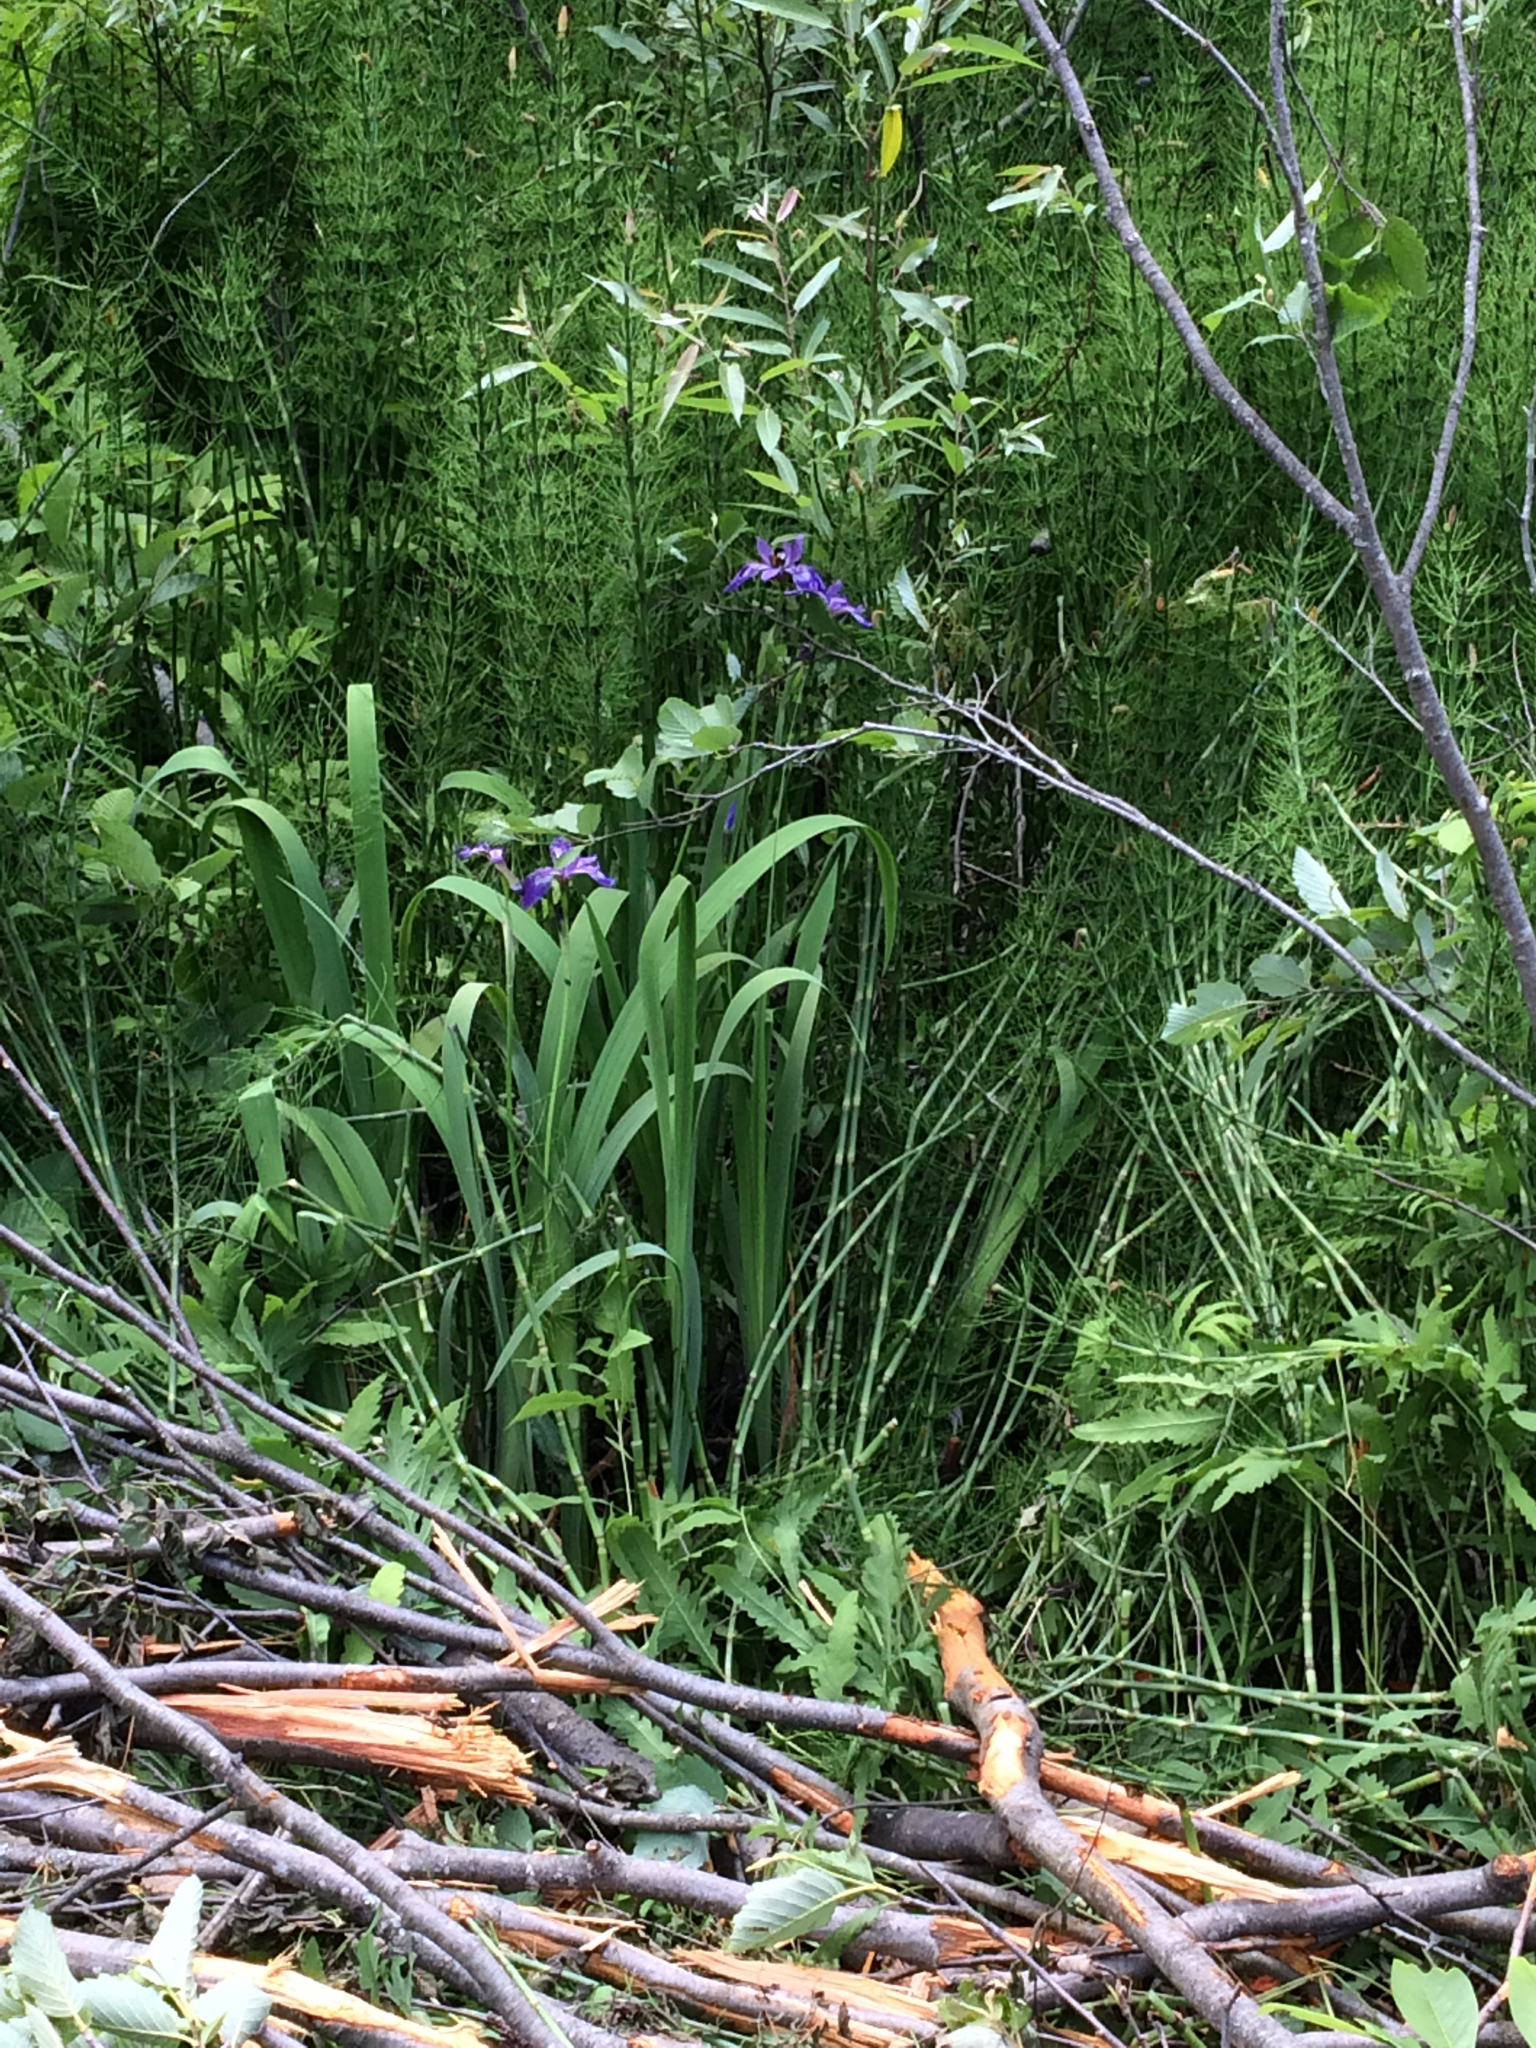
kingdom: Plantae
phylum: Tracheophyta
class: Liliopsida
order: Asparagales
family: Iridaceae
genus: Iris
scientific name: Iris versicolor
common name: Purple iris
